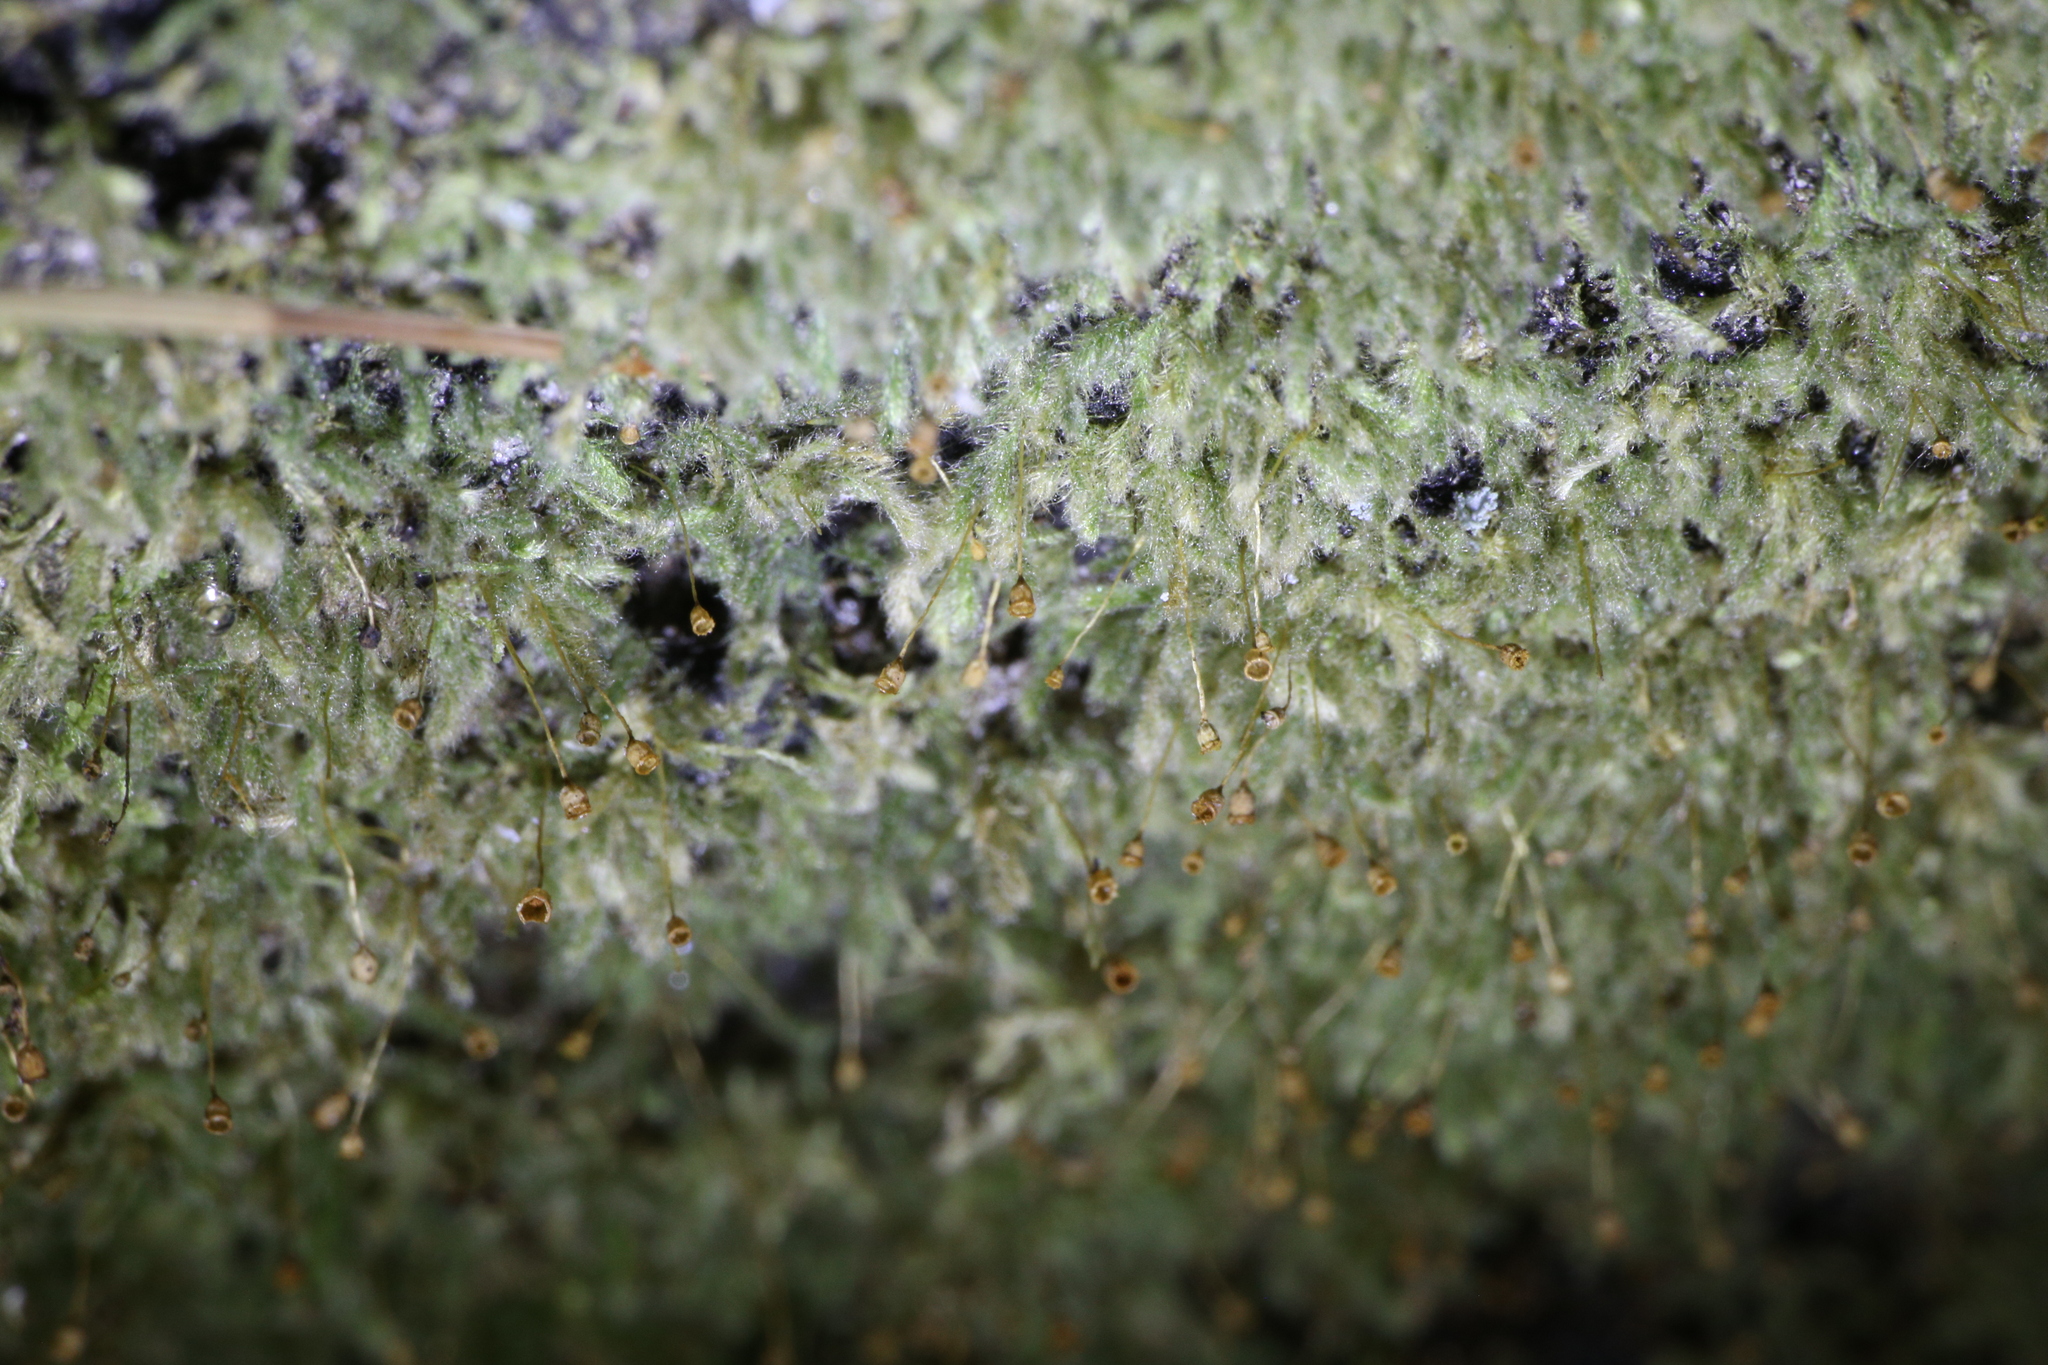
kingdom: Plantae
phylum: Bryophyta
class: Bryopsida
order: Hypnales
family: Fabroniaceae
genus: Fabronia
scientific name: Fabronia hampeana
